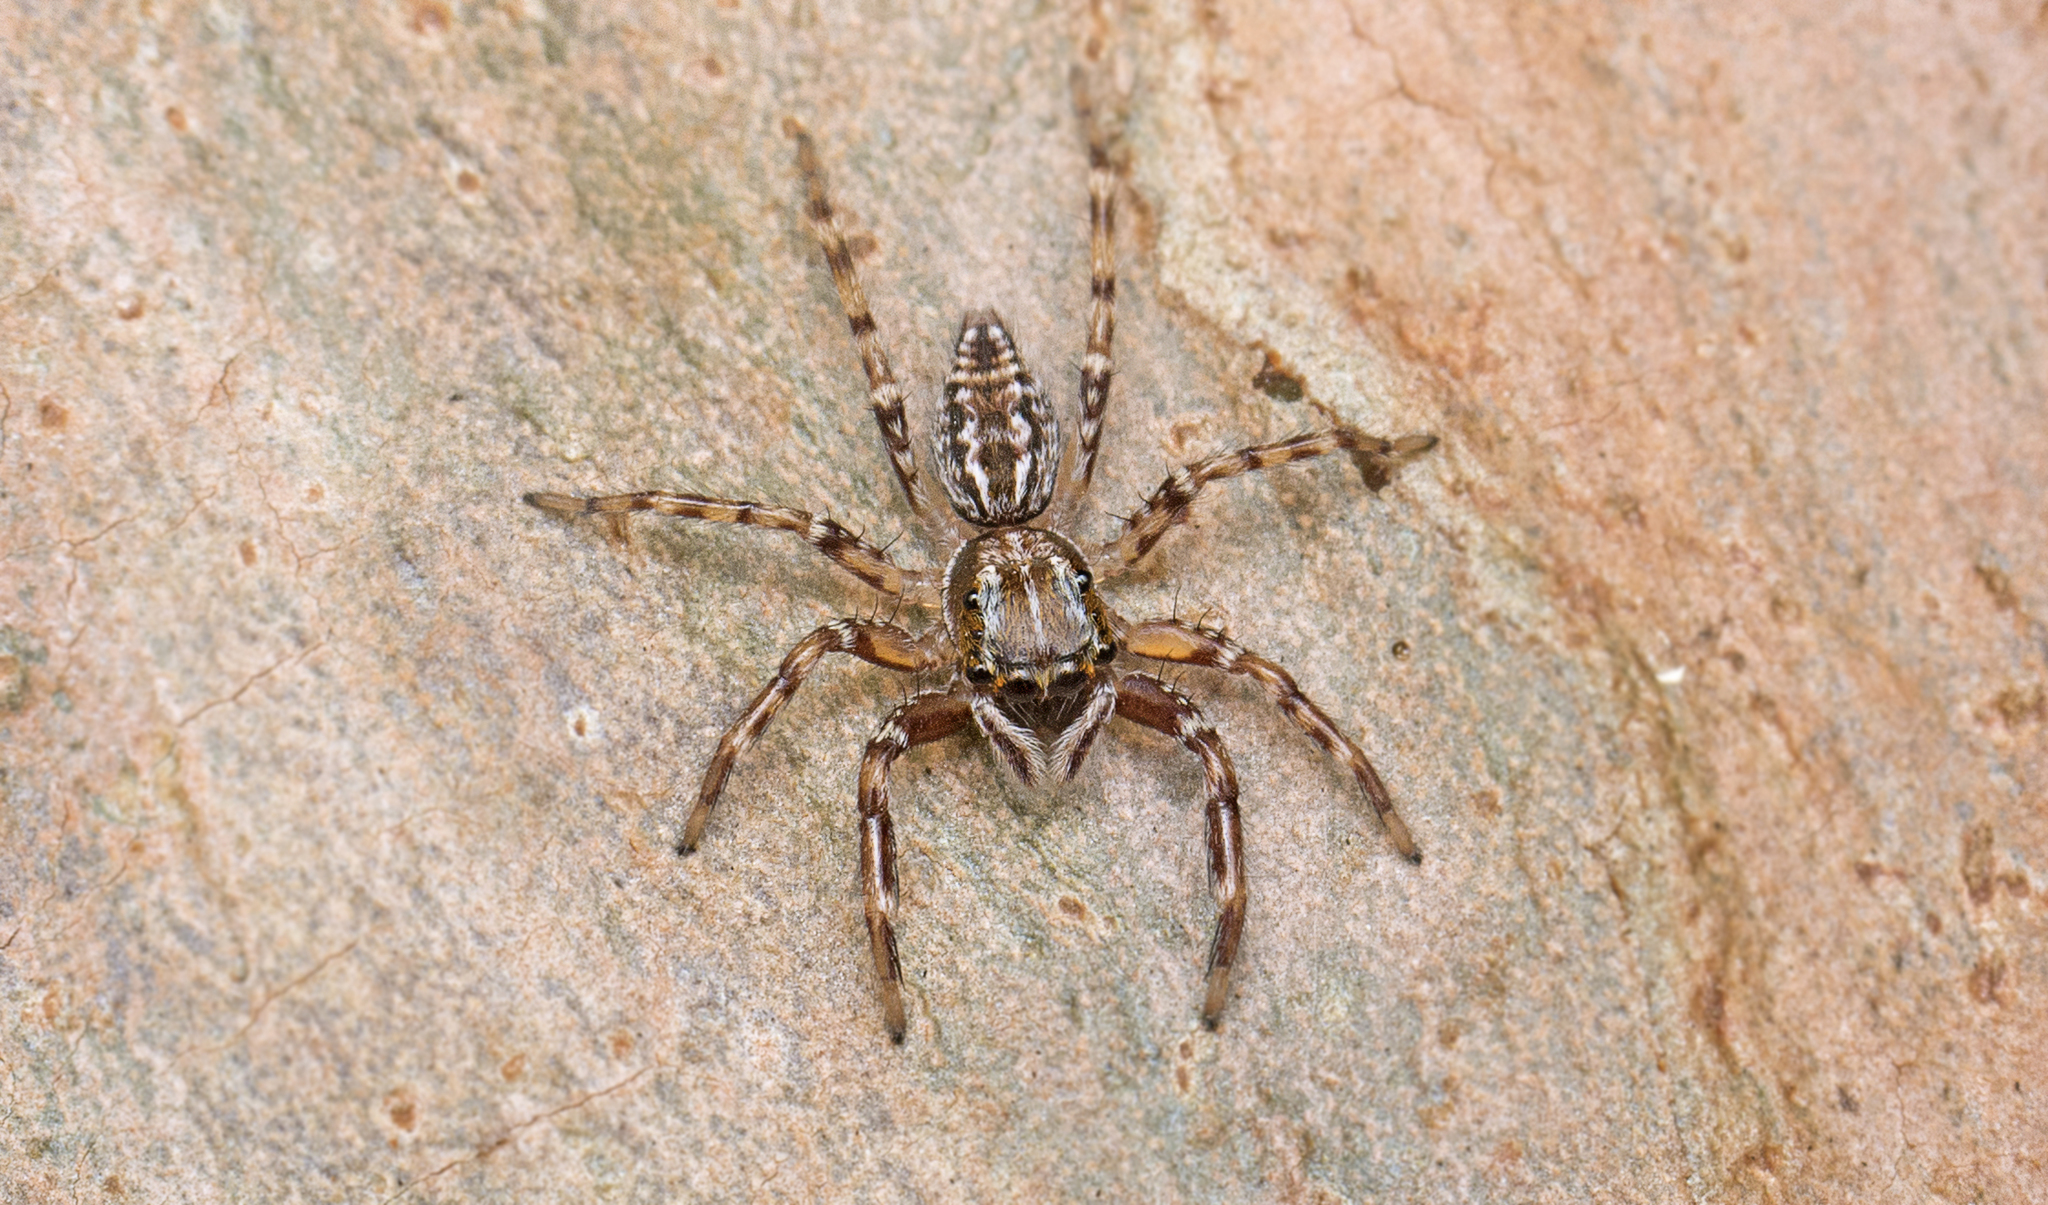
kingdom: Animalia
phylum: Arthropoda
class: Arachnida
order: Araneae
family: Salticidae
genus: Astia
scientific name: Astia
